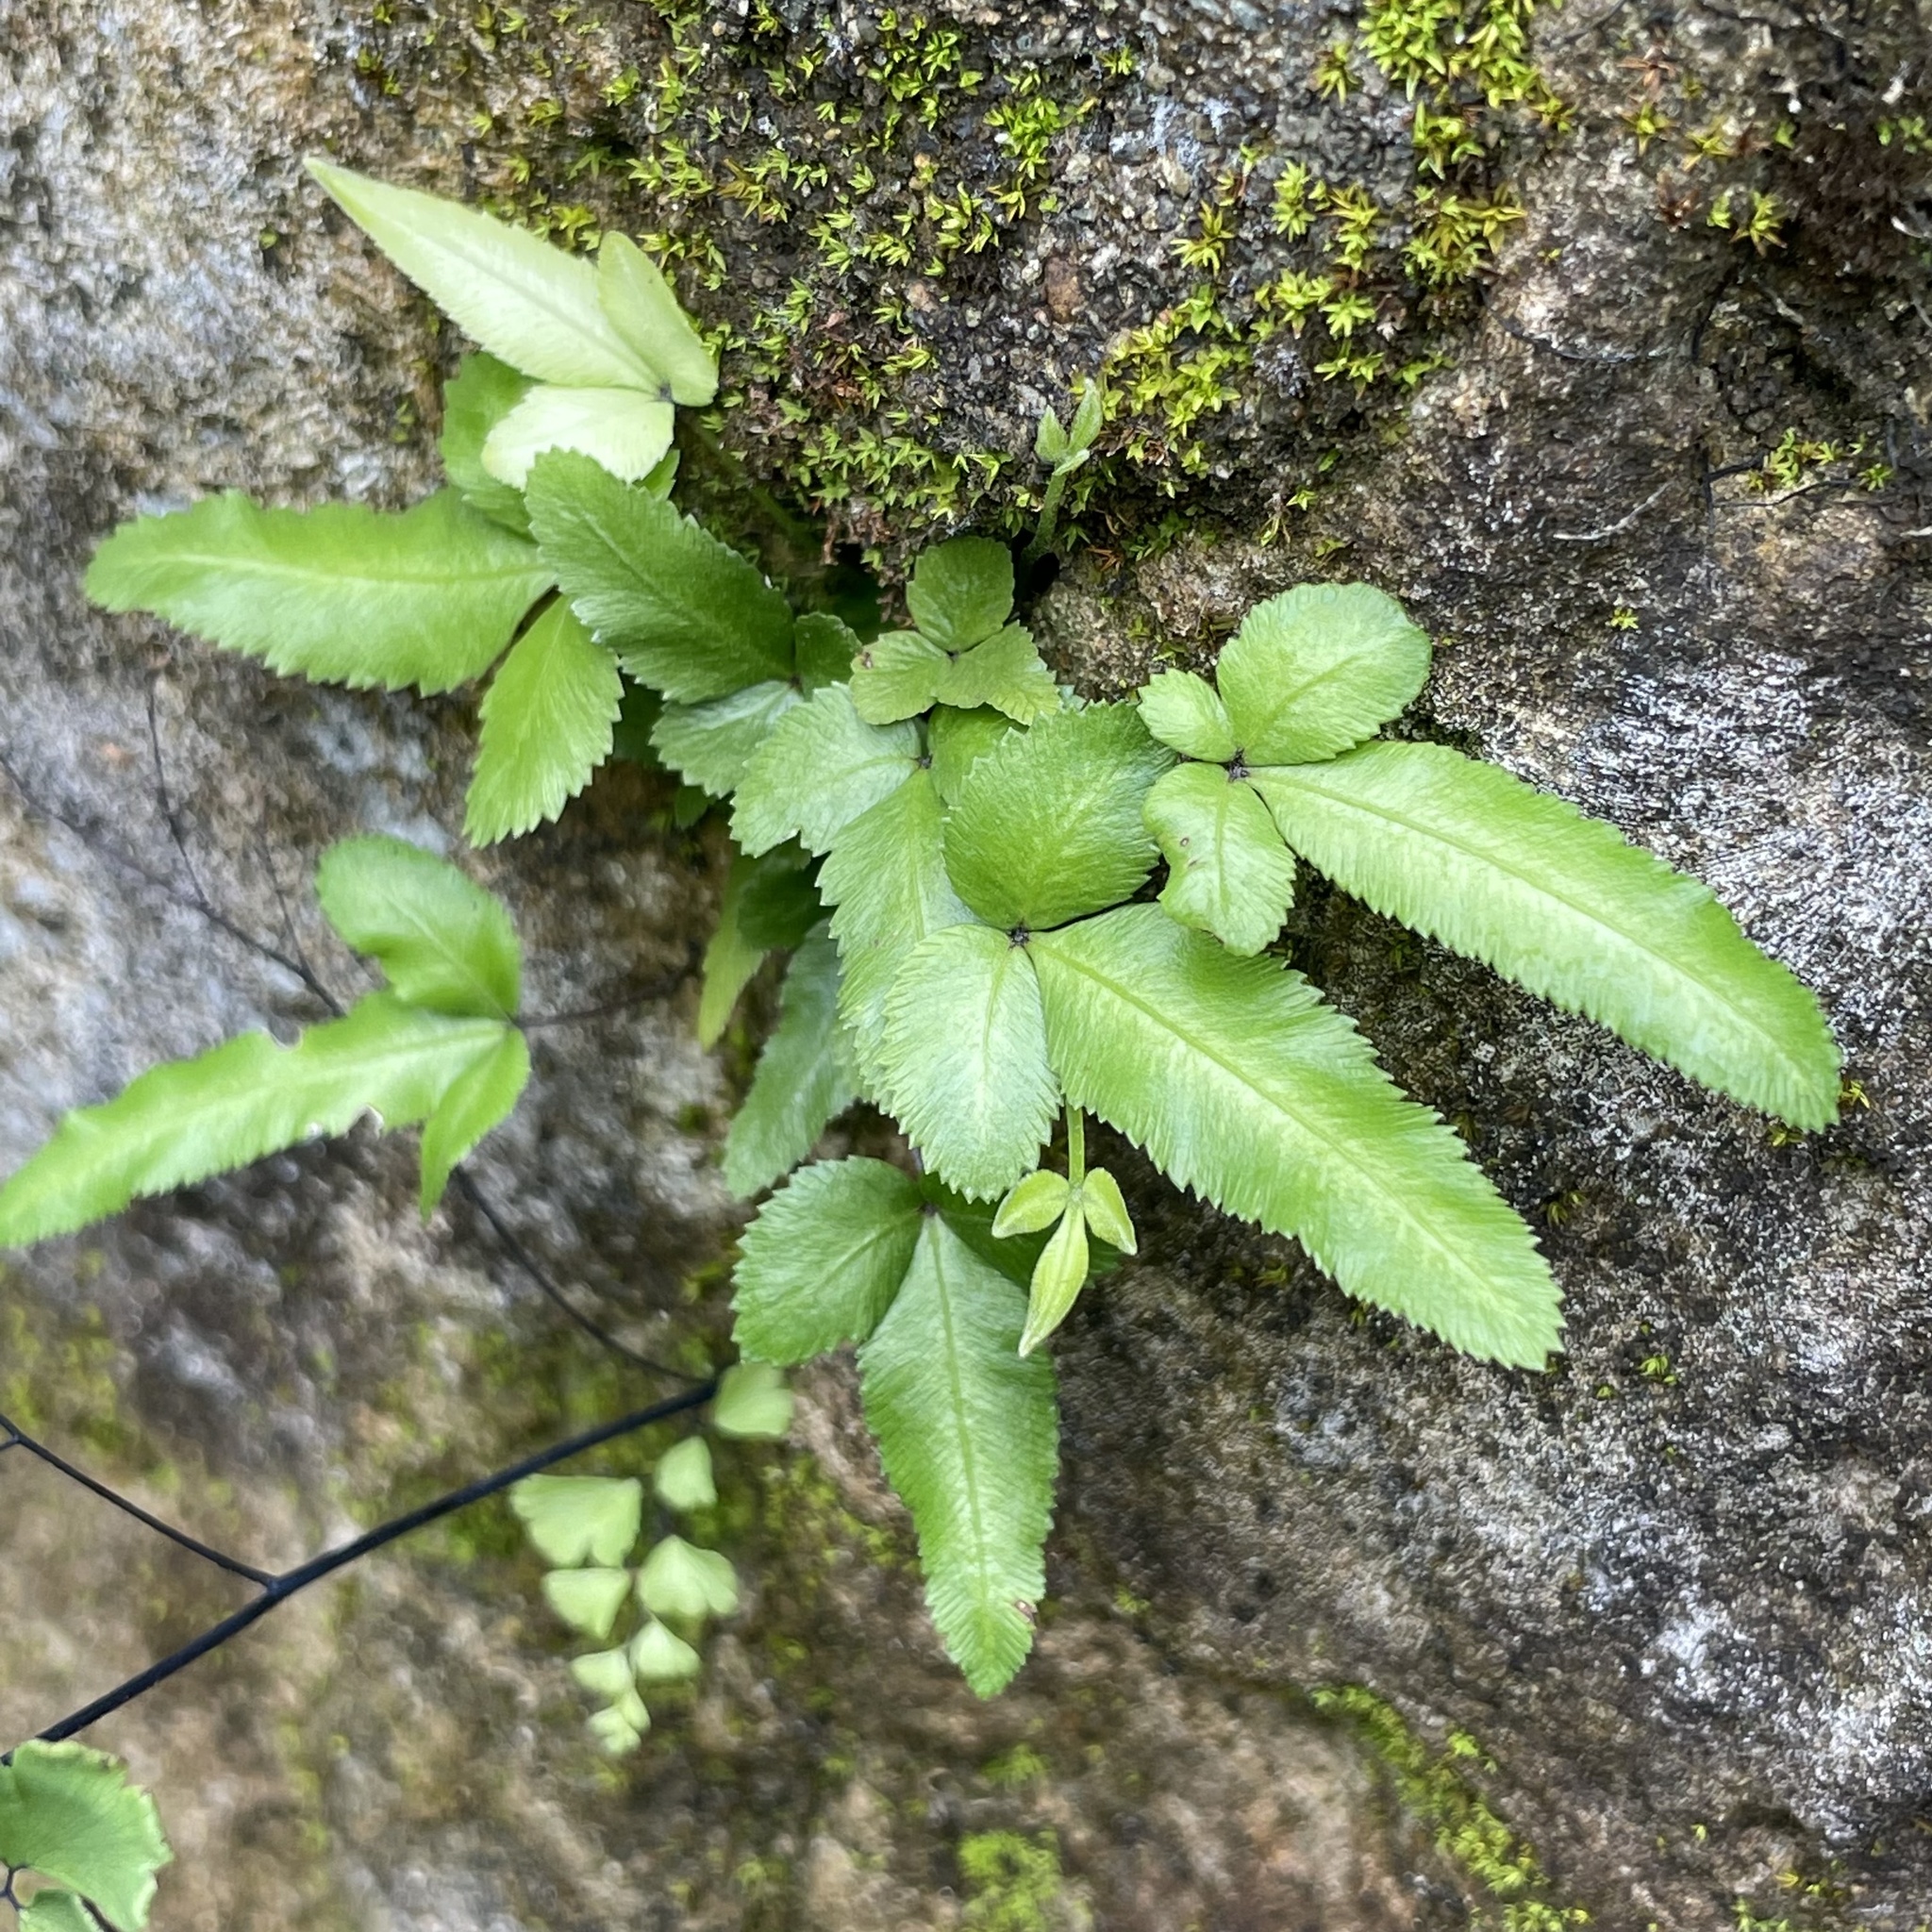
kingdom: Plantae
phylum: Tracheophyta
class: Polypodiopsida
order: Polypodiales
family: Pteridaceae
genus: Pteris
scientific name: Pteris parkeri
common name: Cretan brake
